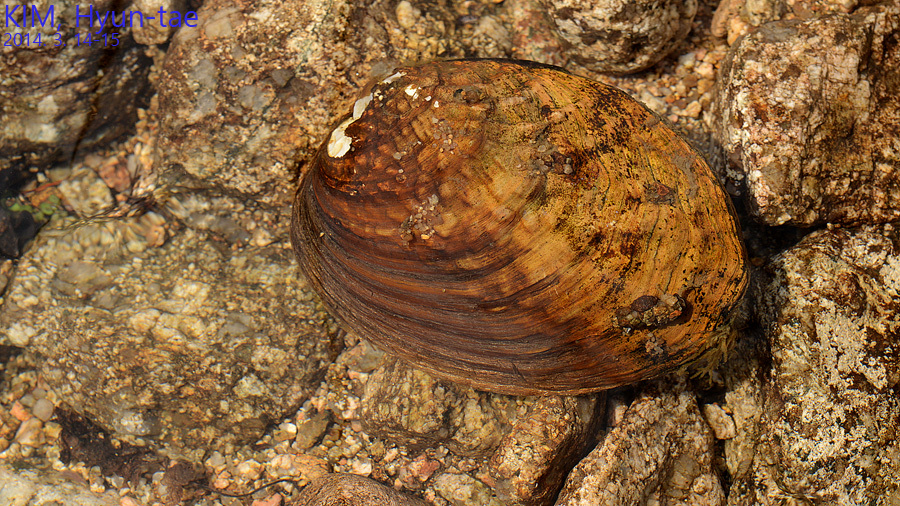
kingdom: Animalia
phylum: Mollusca
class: Bivalvia
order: Unionida
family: Unionidae
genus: Aculamprotula
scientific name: Aculamprotula coreana
